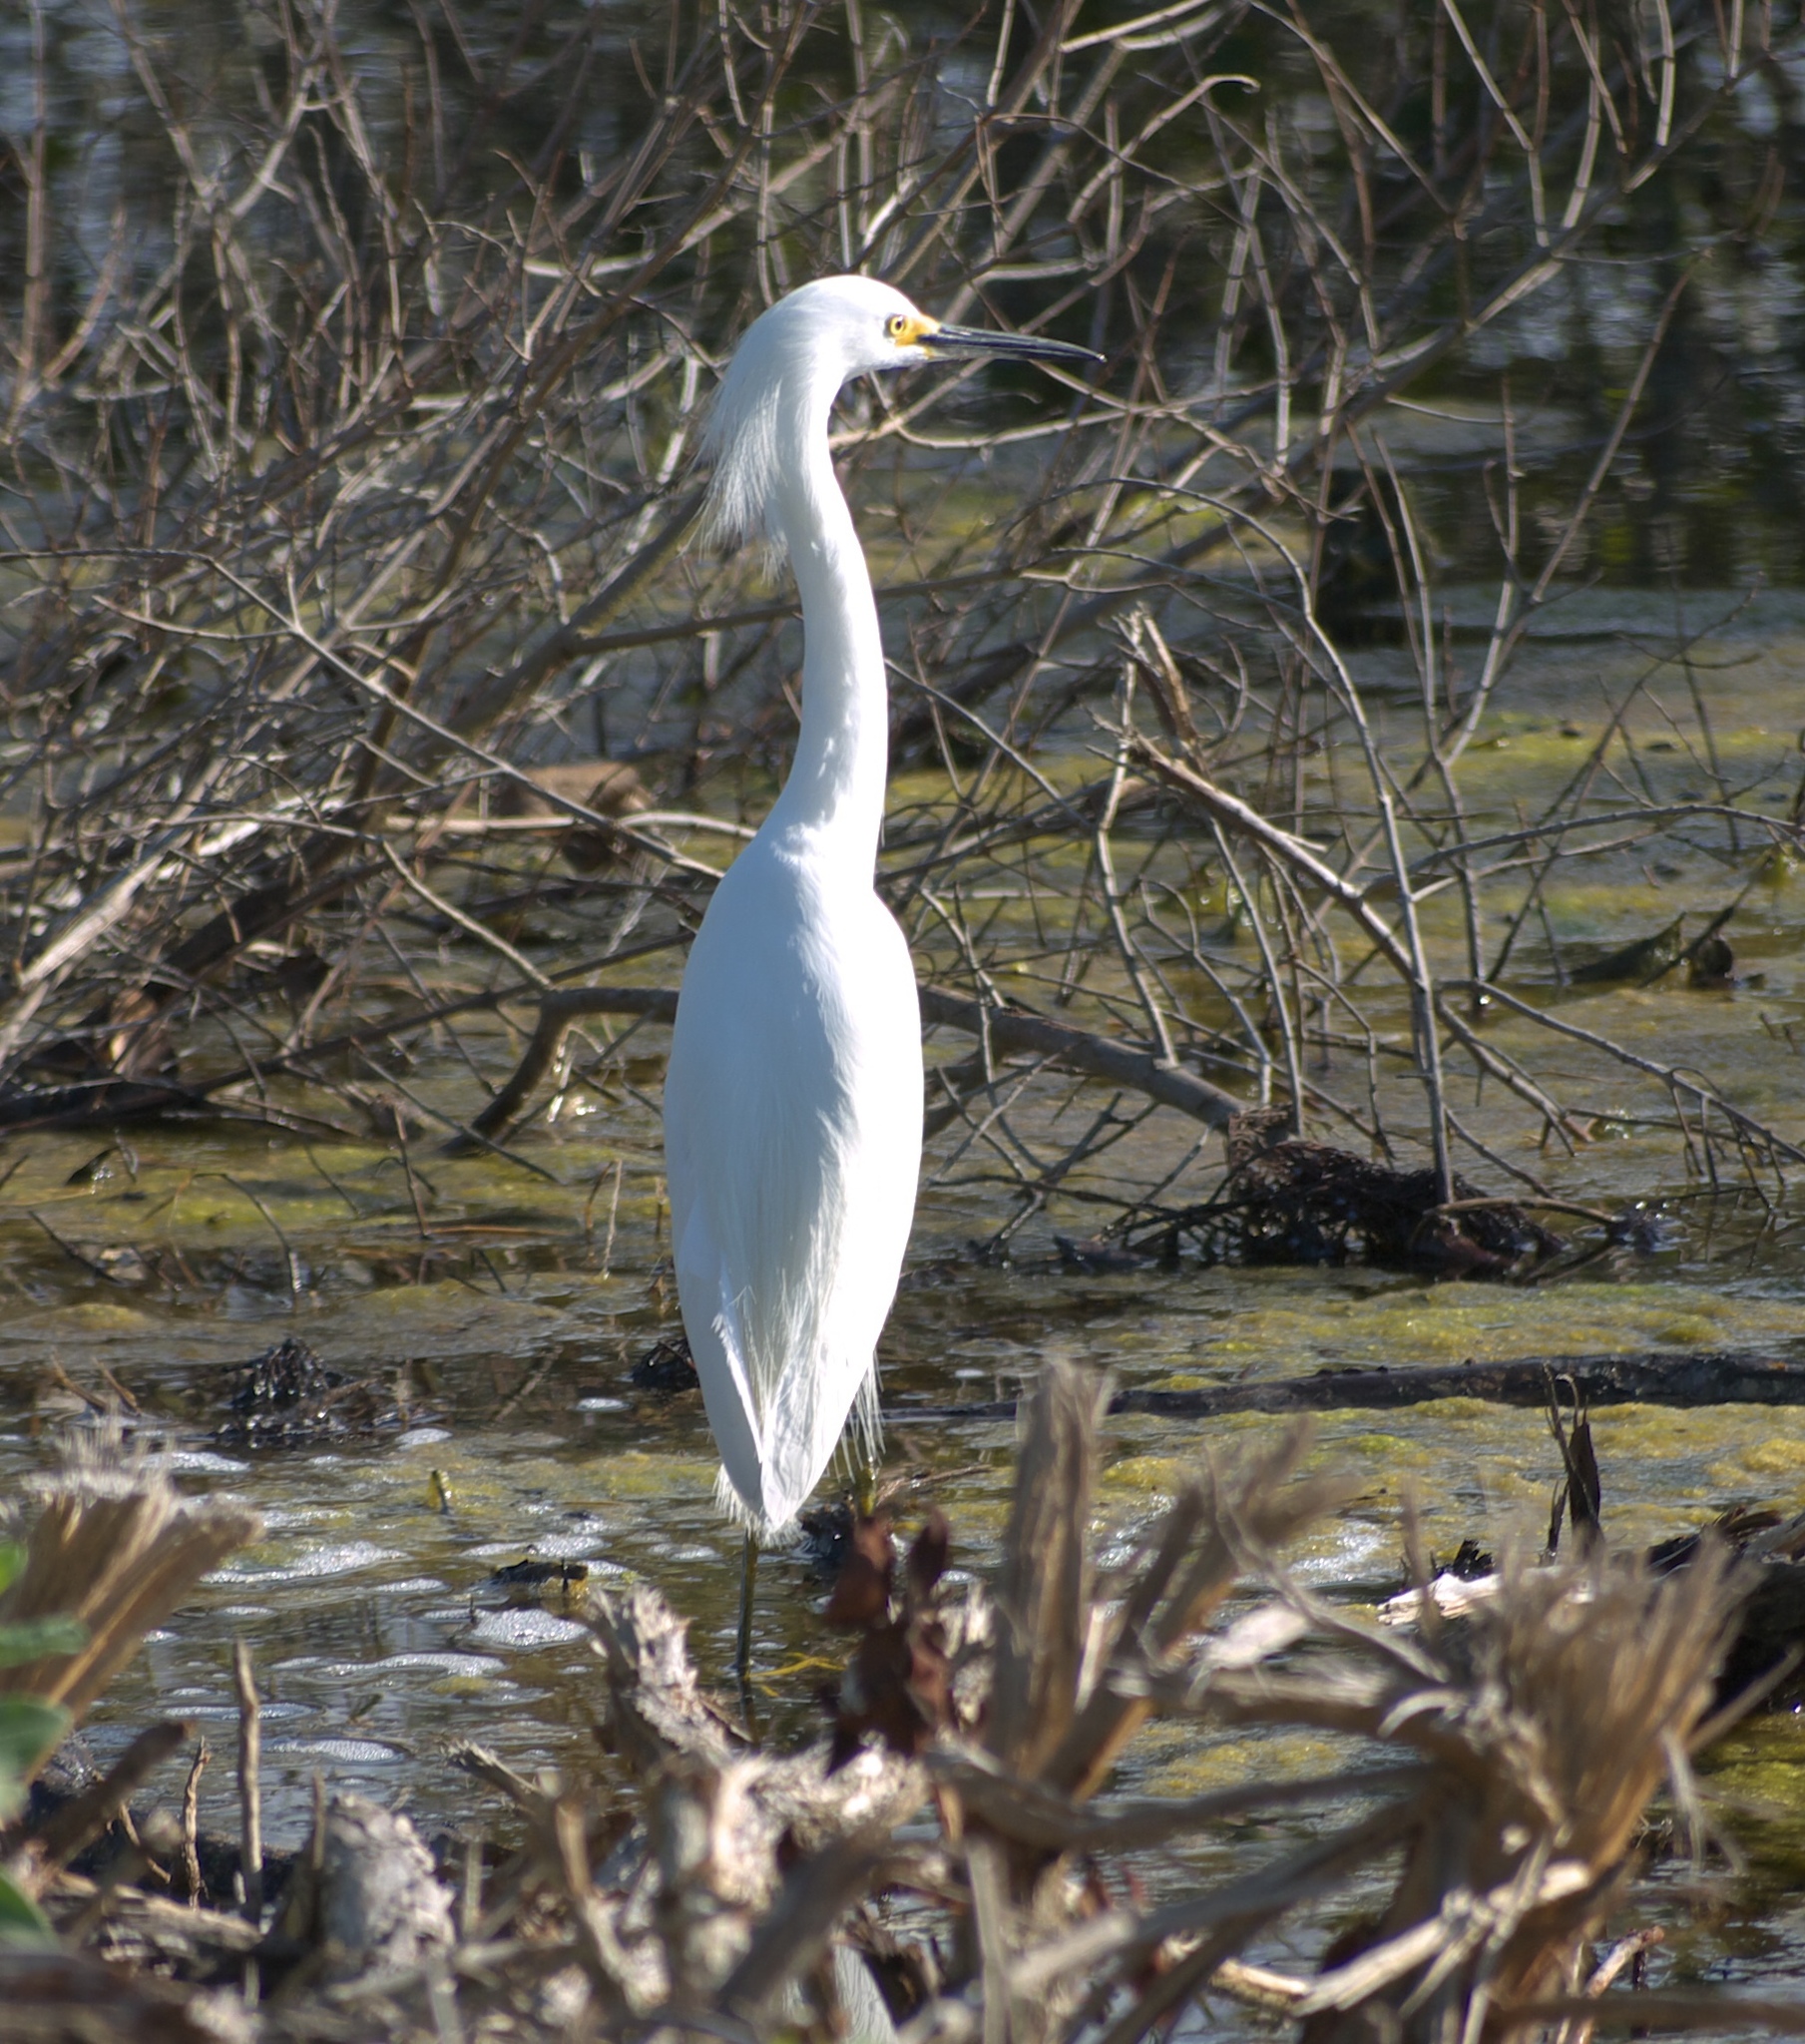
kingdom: Animalia
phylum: Chordata
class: Aves
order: Pelecaniformes
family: Ardeidae
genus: Egretta
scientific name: Egretta thula
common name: Snowy egret
